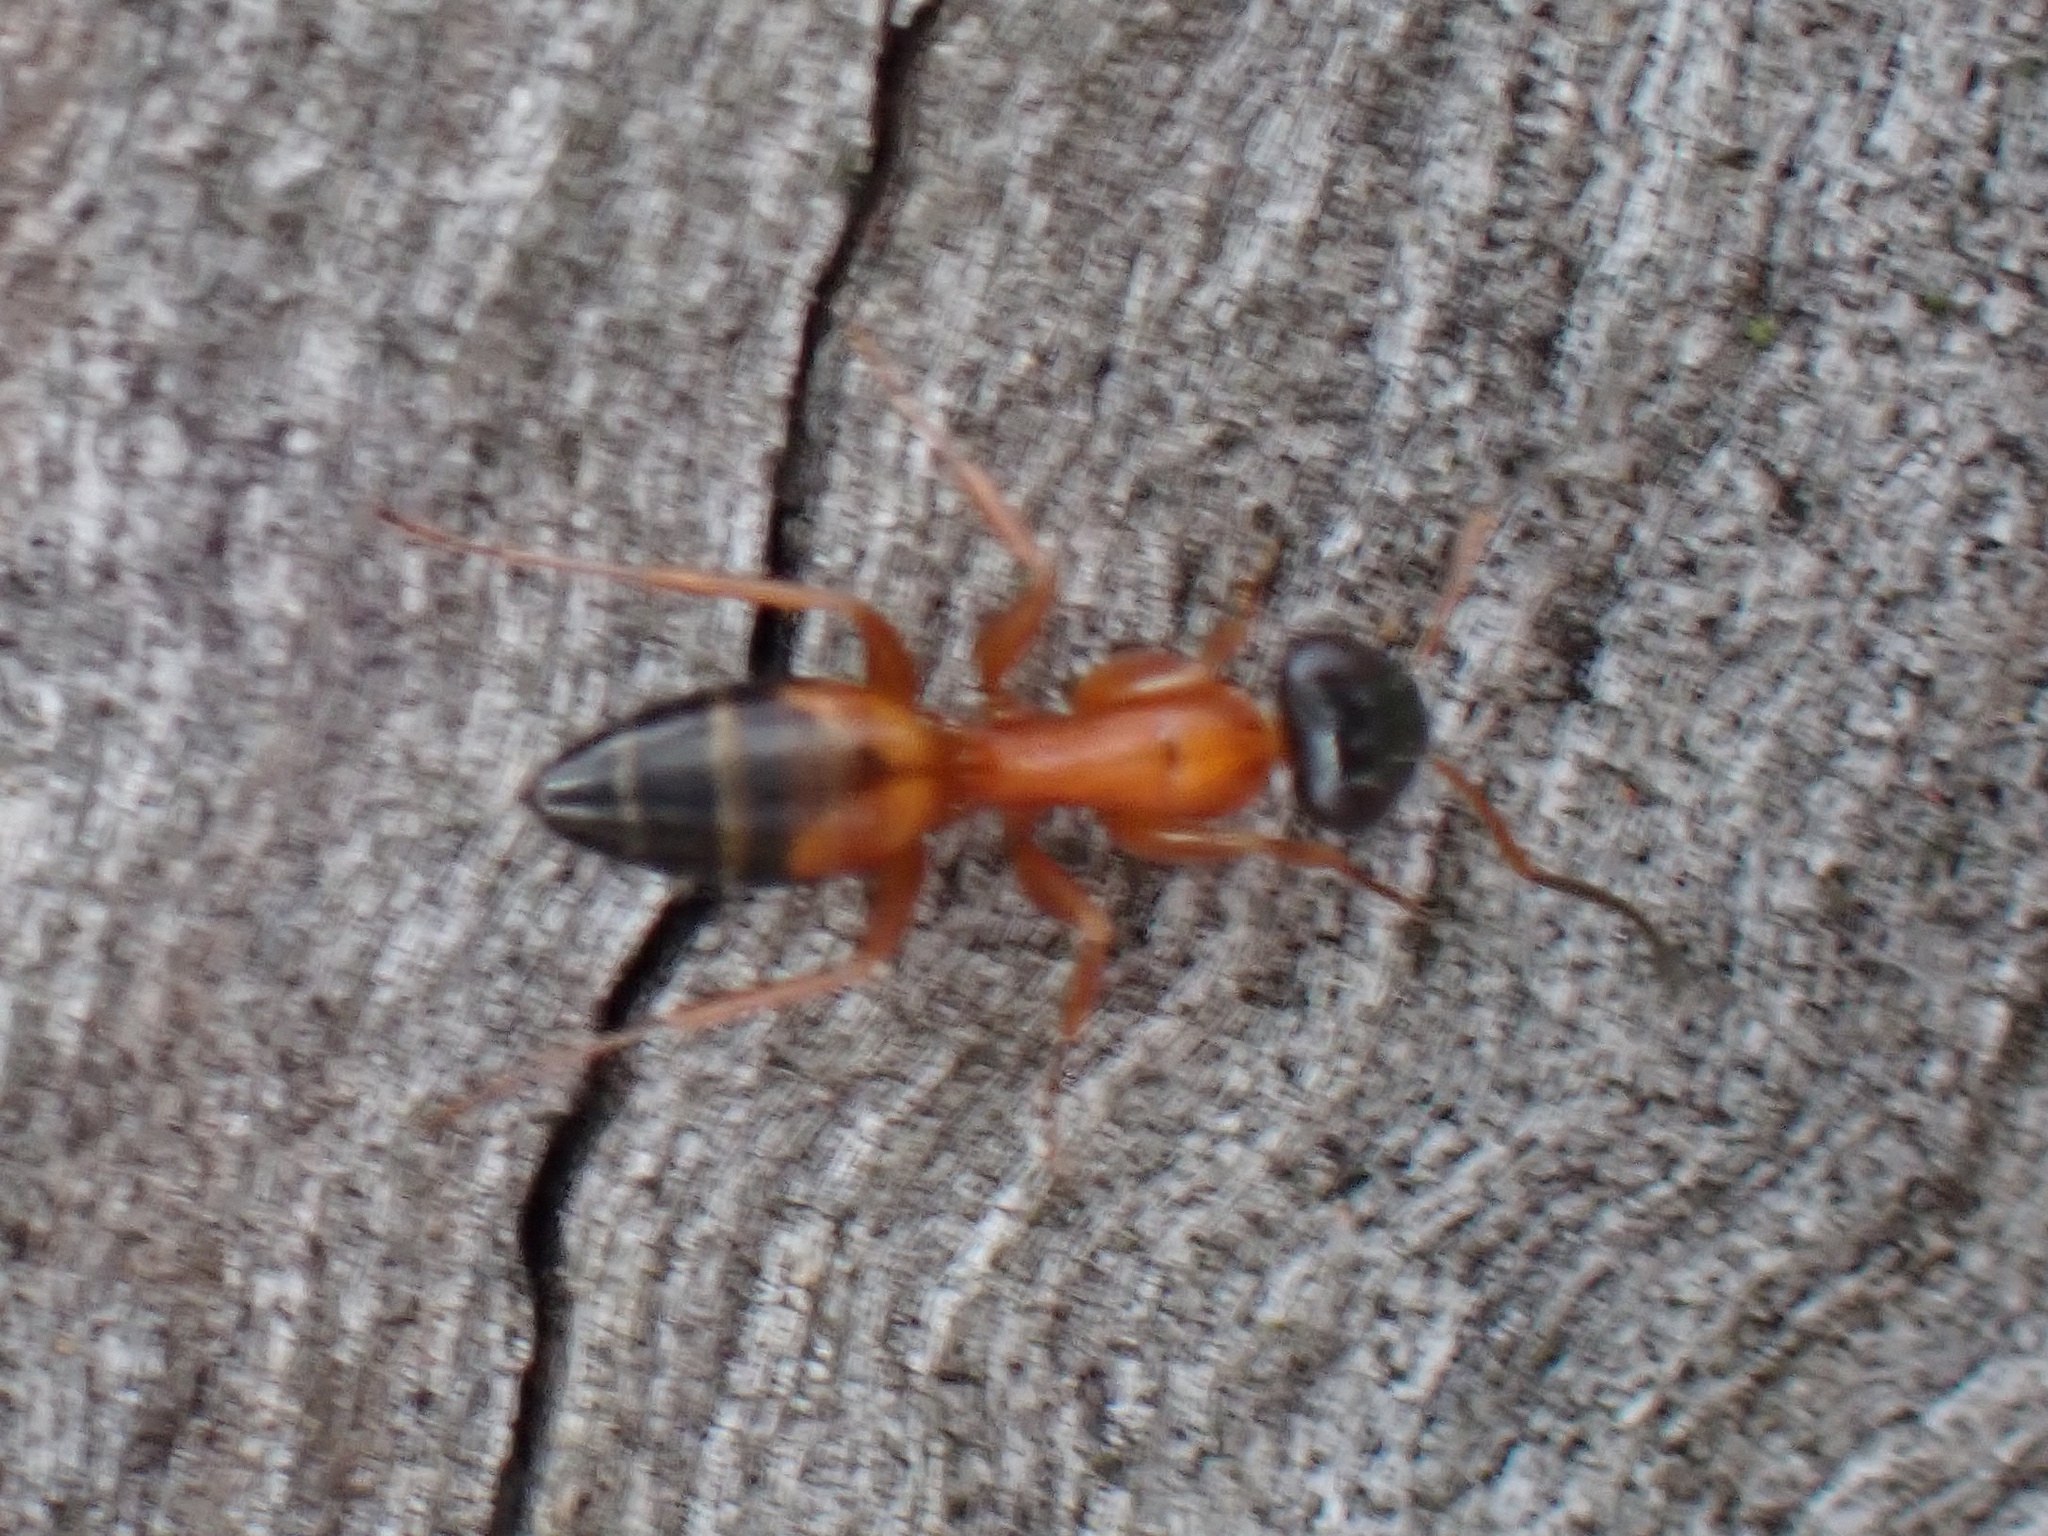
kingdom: Animalia
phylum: Arthropoda
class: Insecta
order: Hymenoptera
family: Formicidae
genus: Opisthopsis
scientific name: Opisthopsis rufithorax
